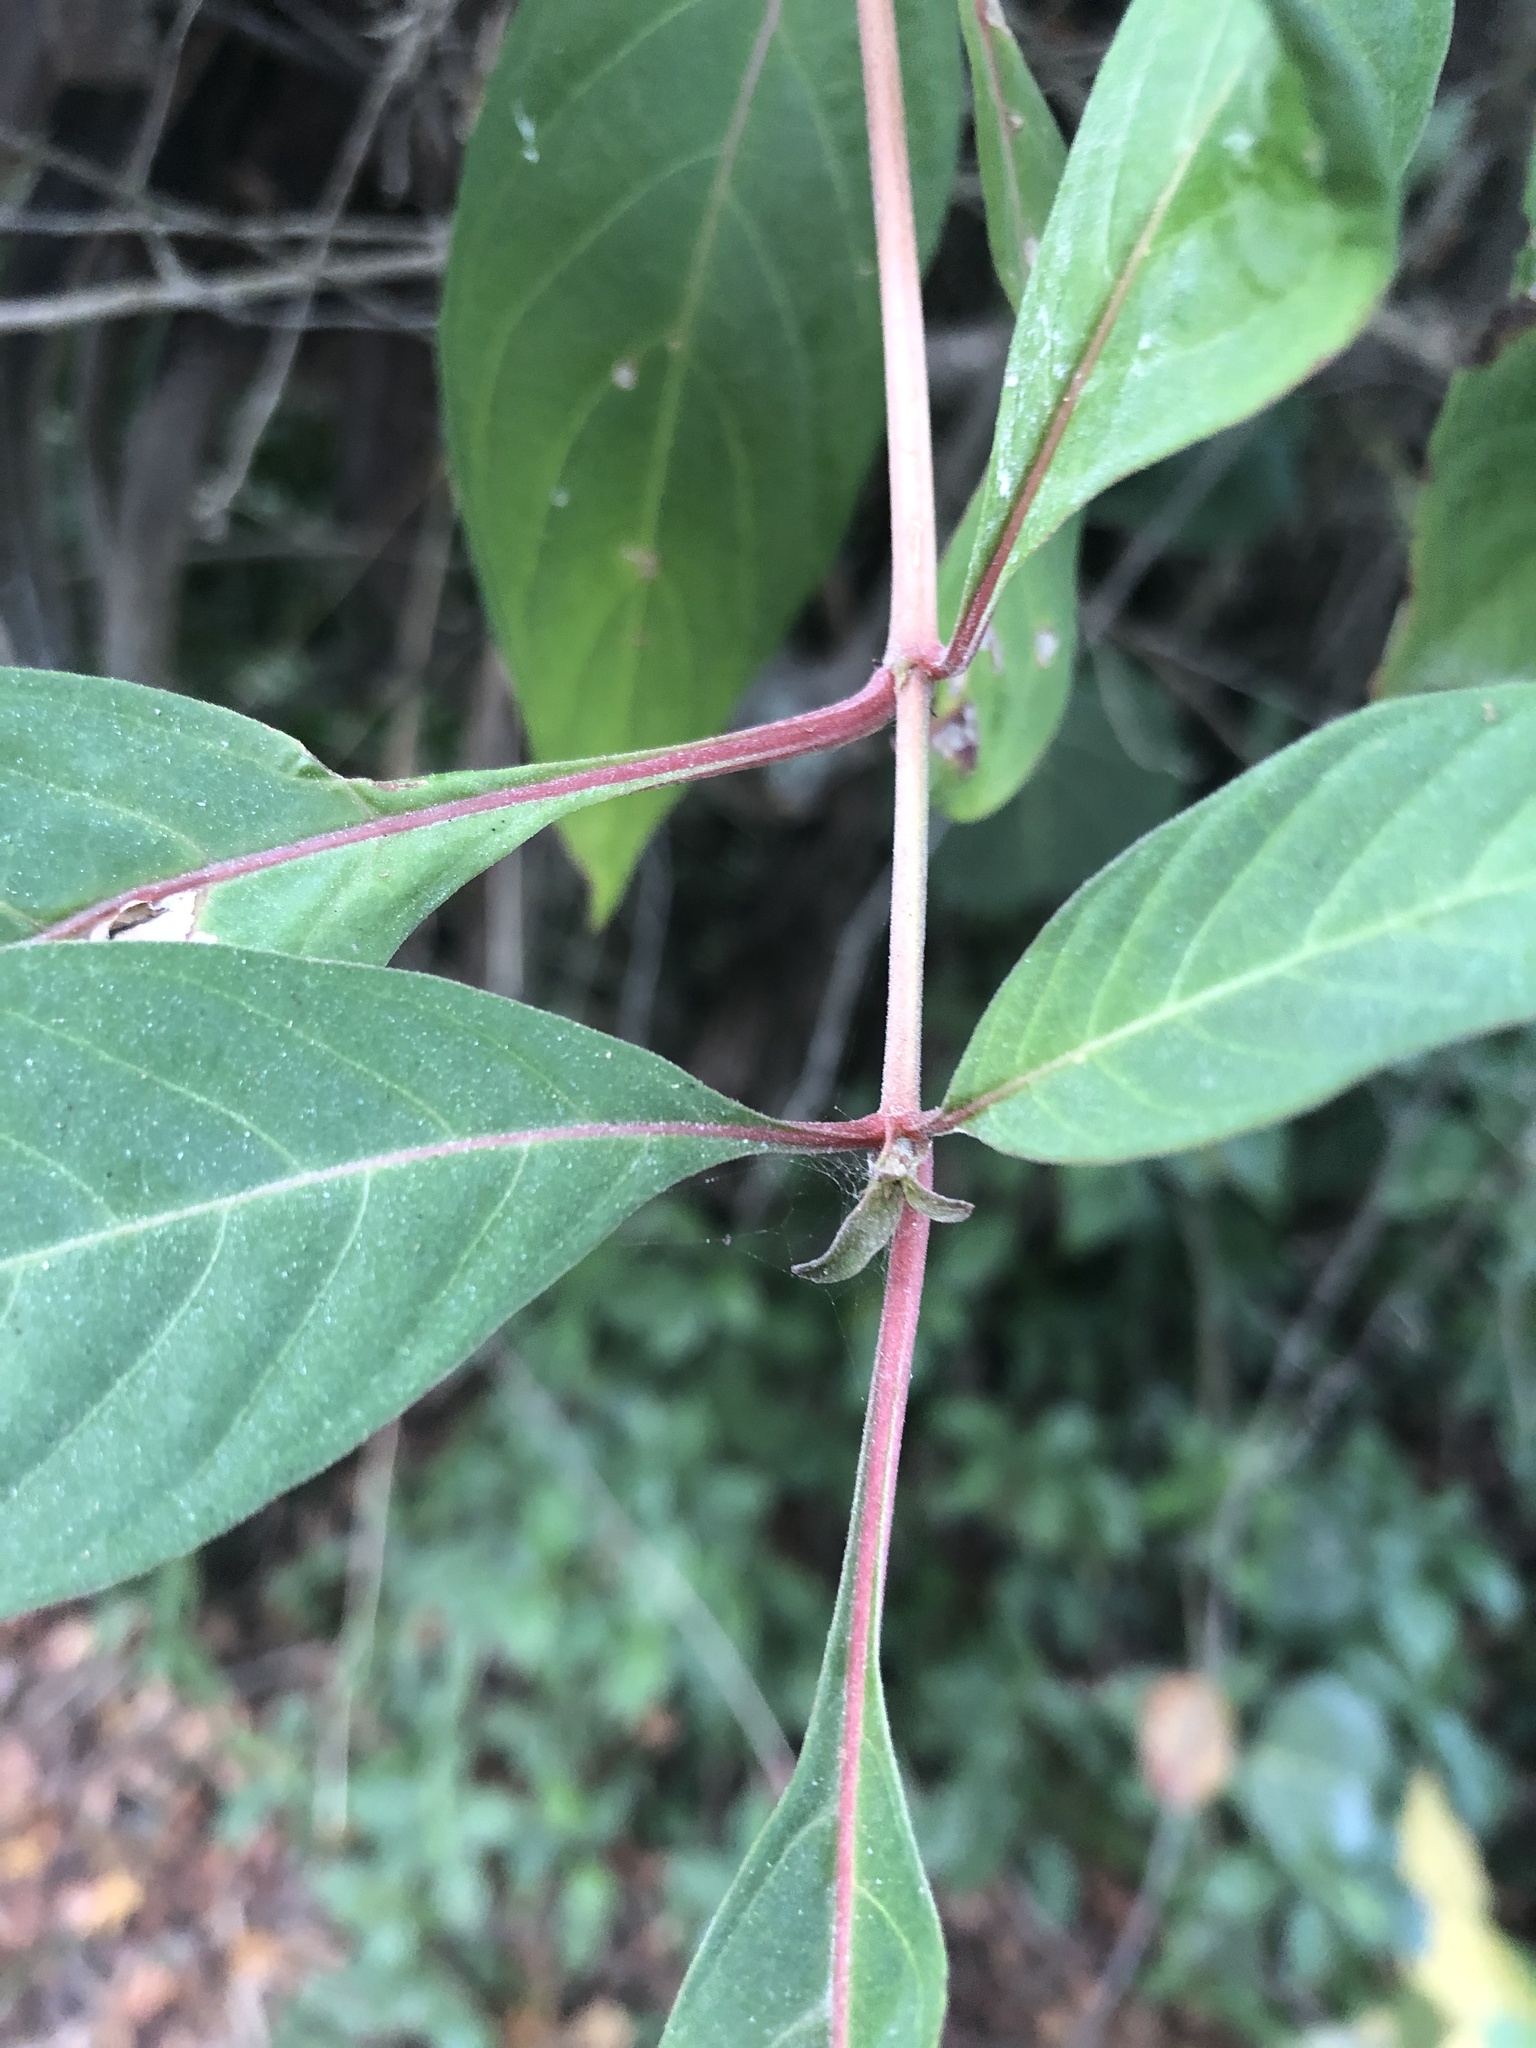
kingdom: Plantae
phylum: Tracheophyta
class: Magnoliopsida
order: Gentianales
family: Rubiaceae
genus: Hamelia
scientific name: Hamelia patens
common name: Redhead
